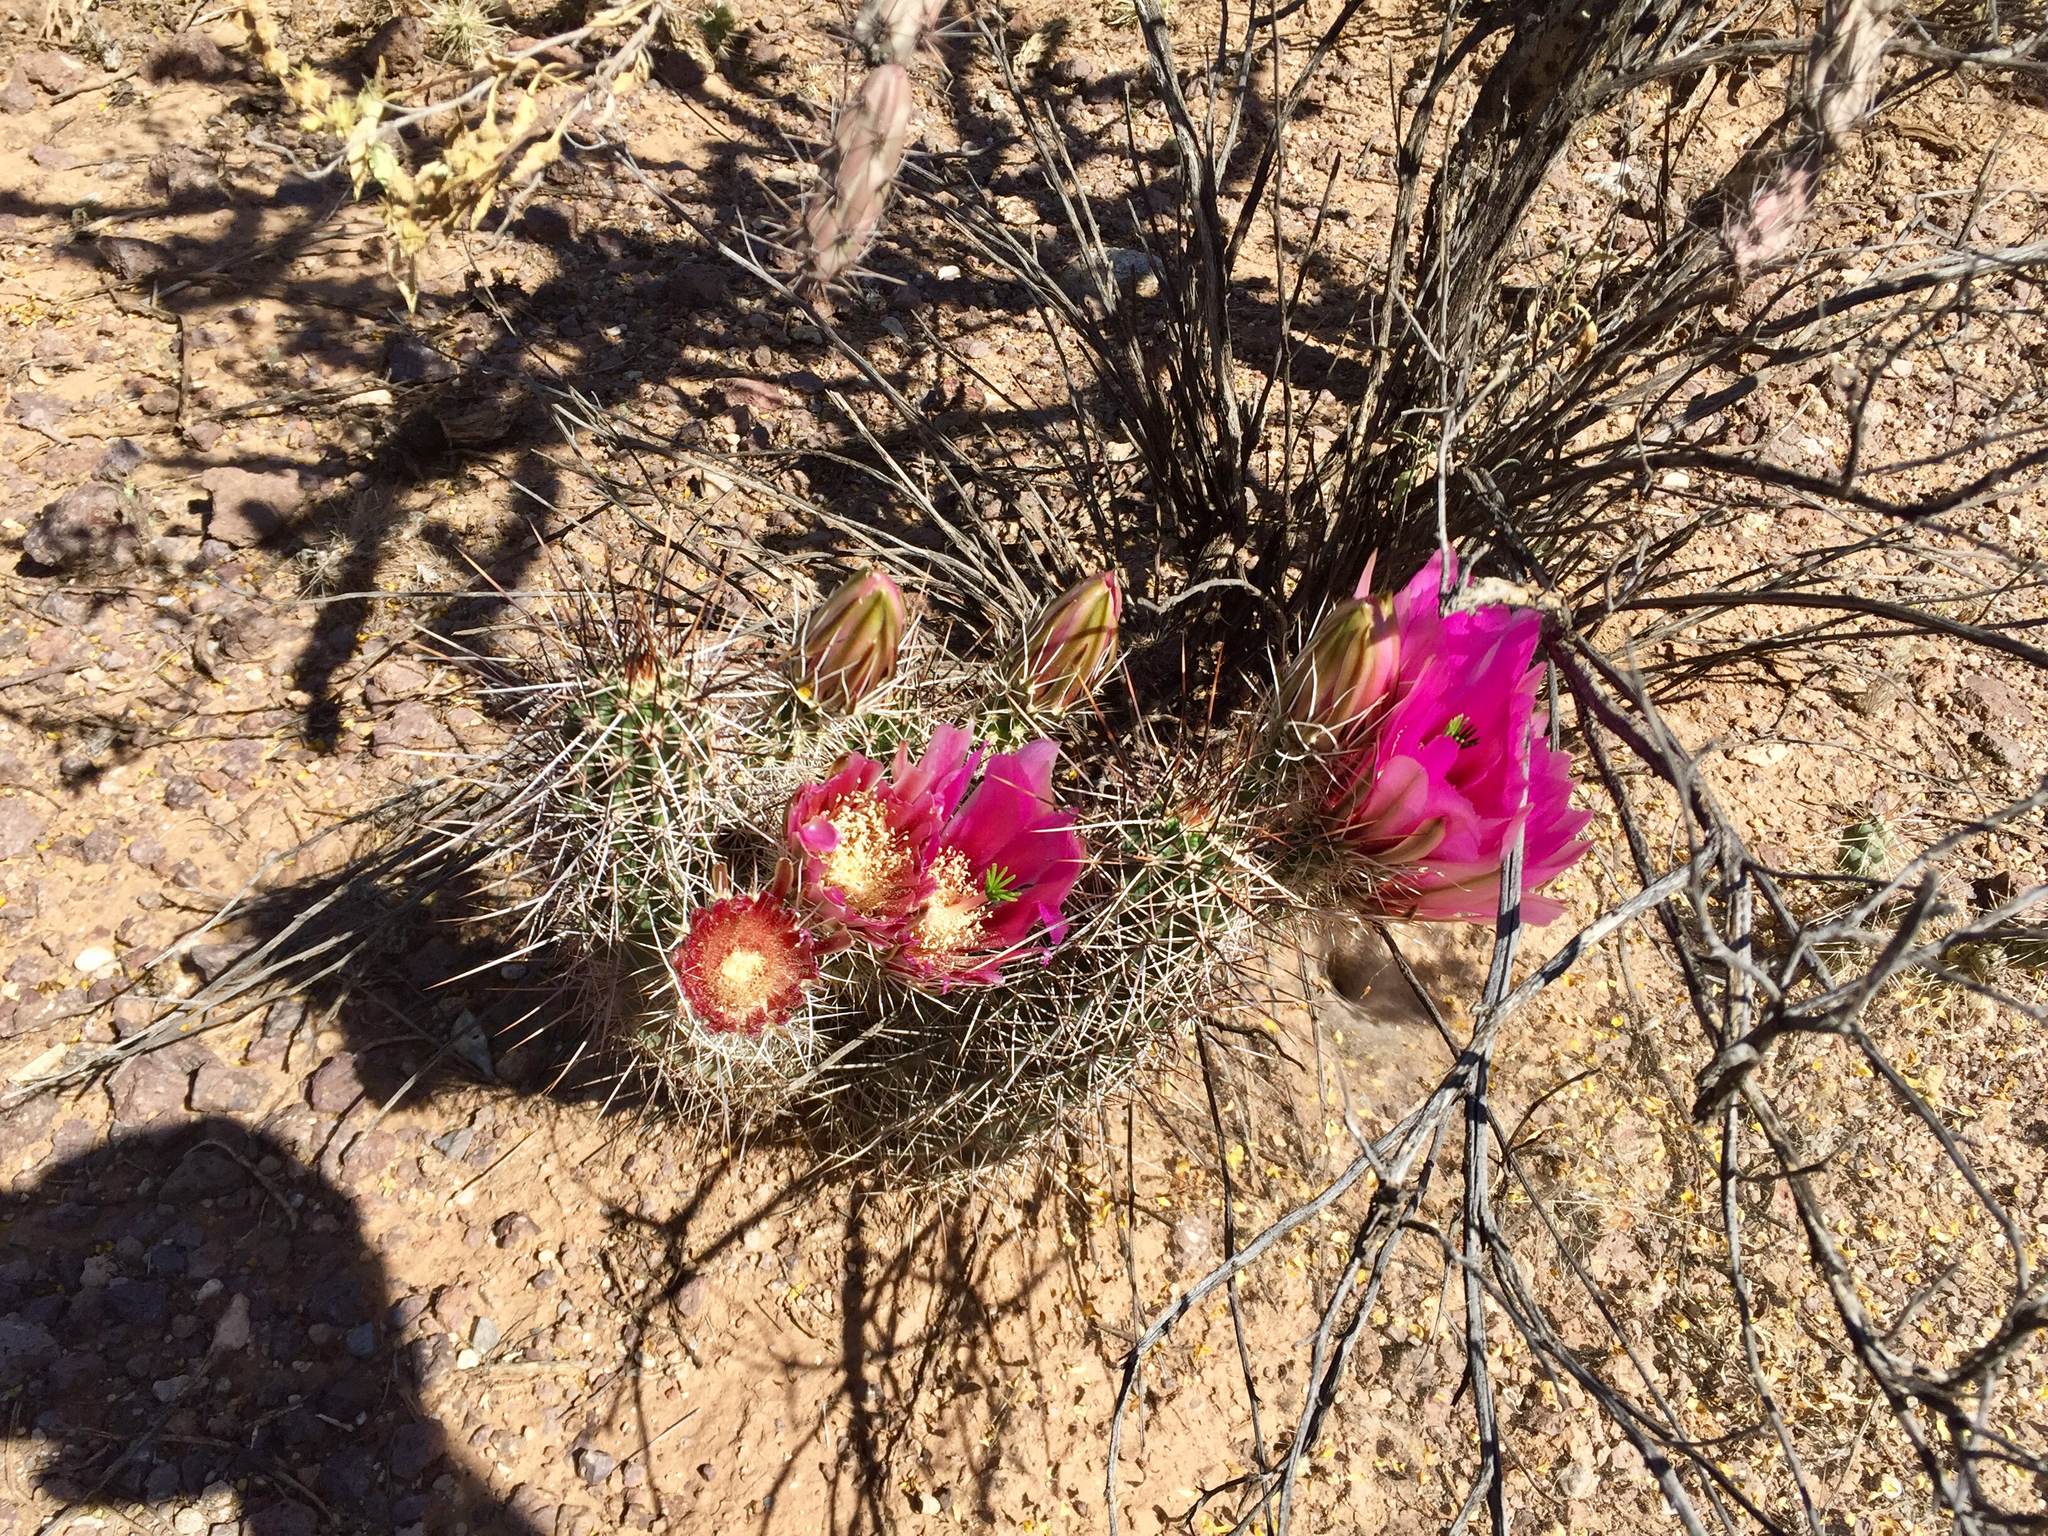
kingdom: Plantae
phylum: Tracheophyta
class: Magnoliopsida
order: Caryophyllales
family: Cactaceae
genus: Echinocereus
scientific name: Echinocereus fasciculatus
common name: Bundle hedgehog
